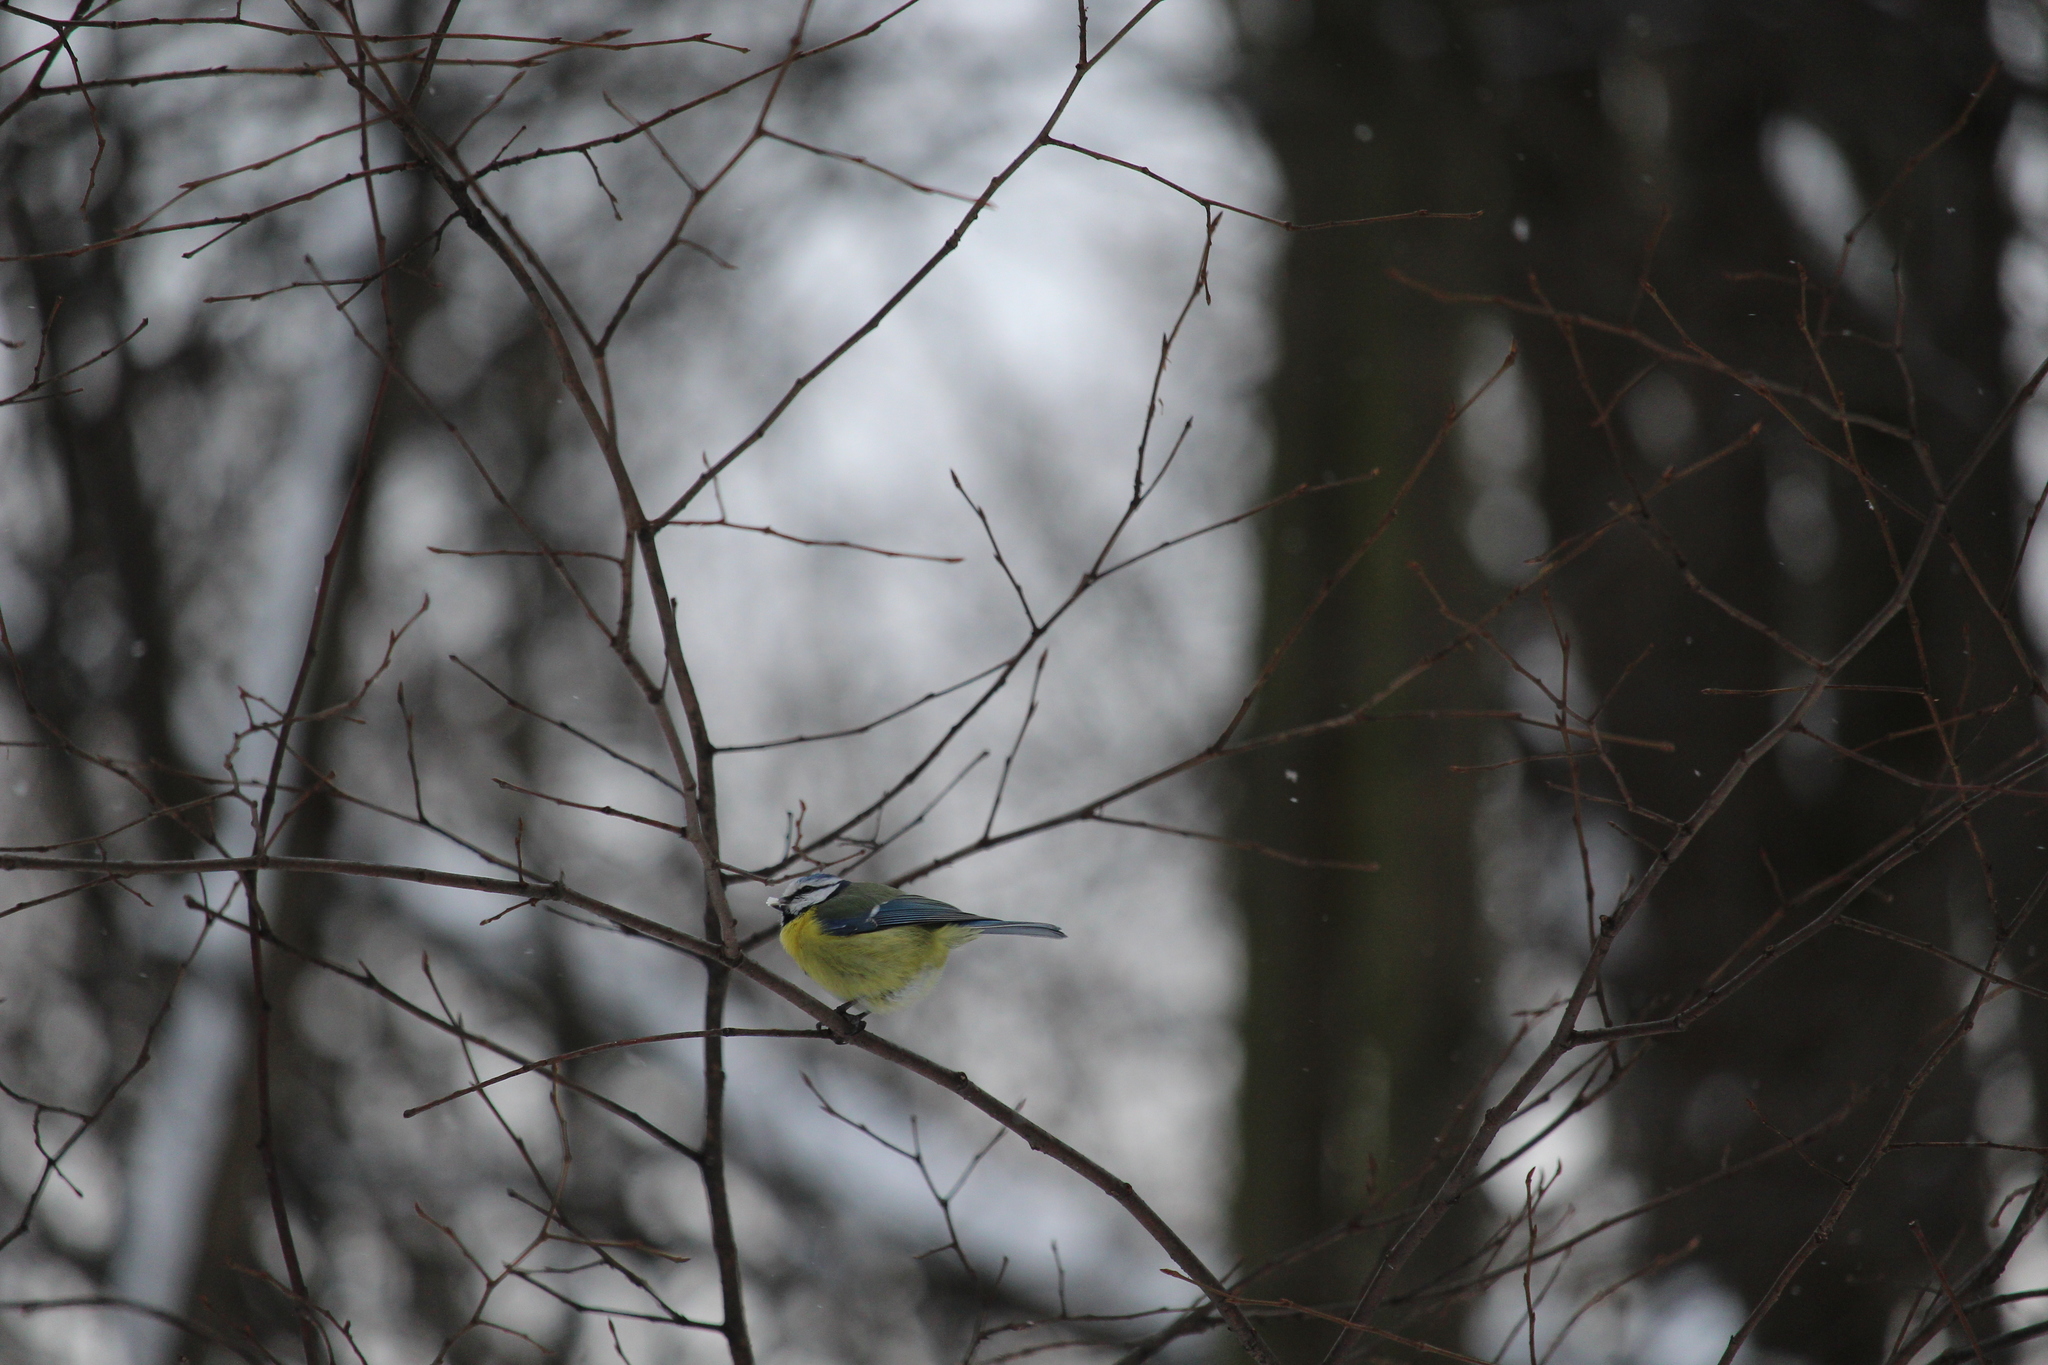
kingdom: Animalia
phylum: Chordata
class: Aves
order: Passeriformes
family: Paridae
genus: Cyanistes
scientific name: Cyanistes caeruleus
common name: Eurasian blue tit
